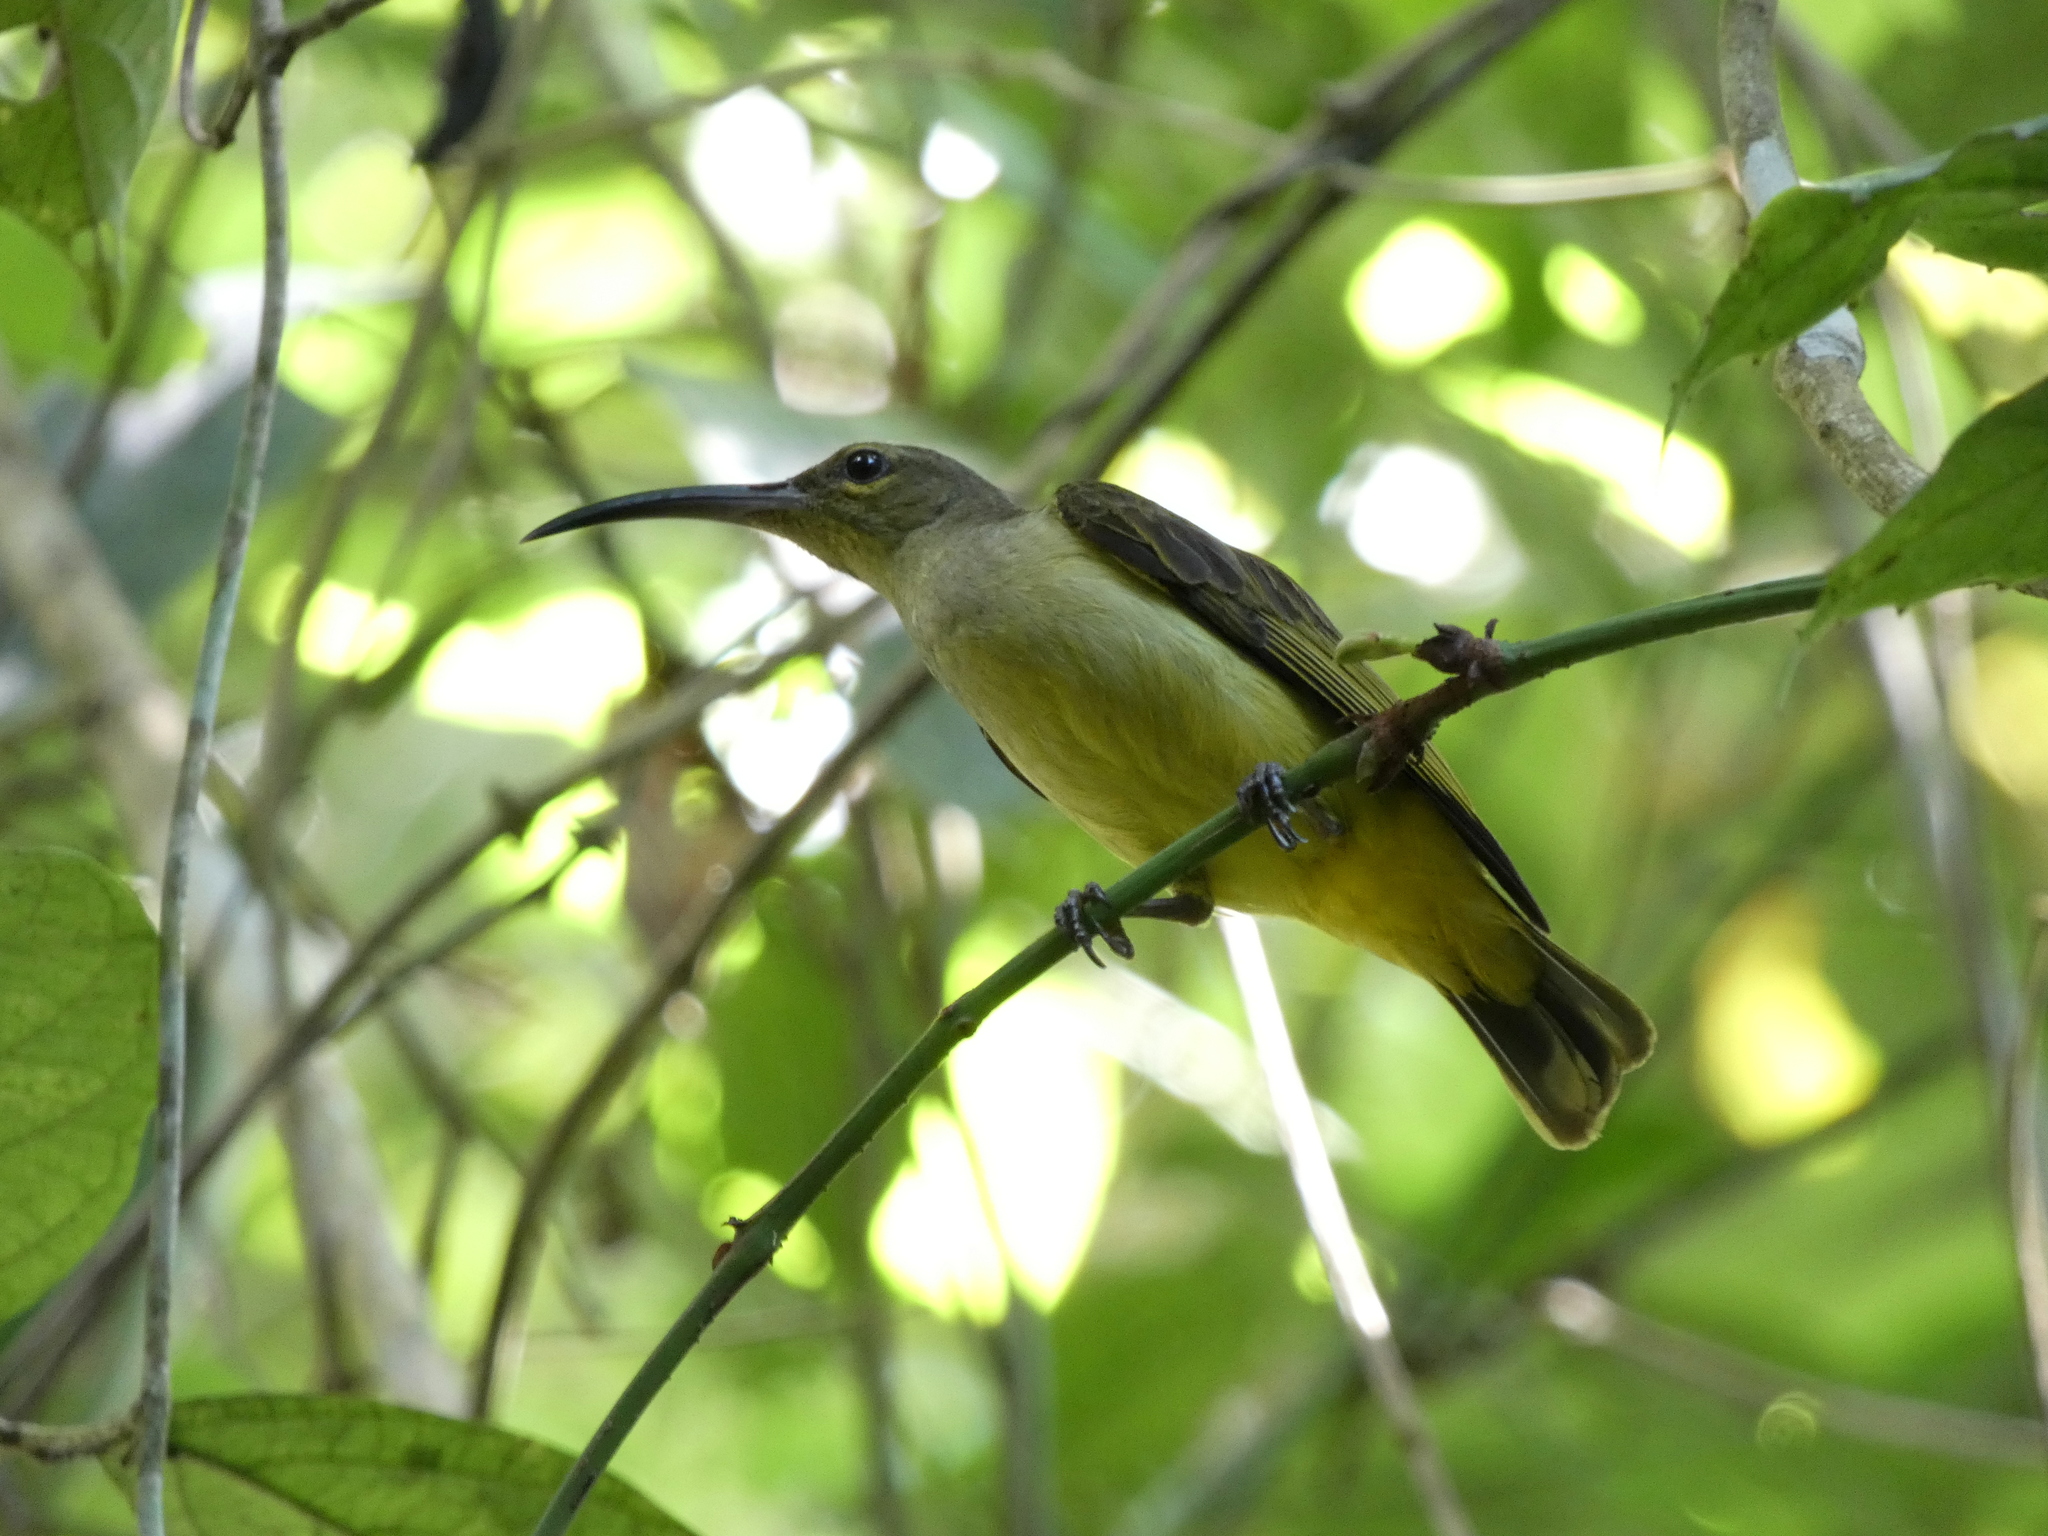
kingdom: Animalia
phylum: Chordata
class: Aves
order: Passeriformes
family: Nectariniidae
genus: Arachnothera
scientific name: Arachnothera crassirostris
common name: Thick-billed spiderhunter
